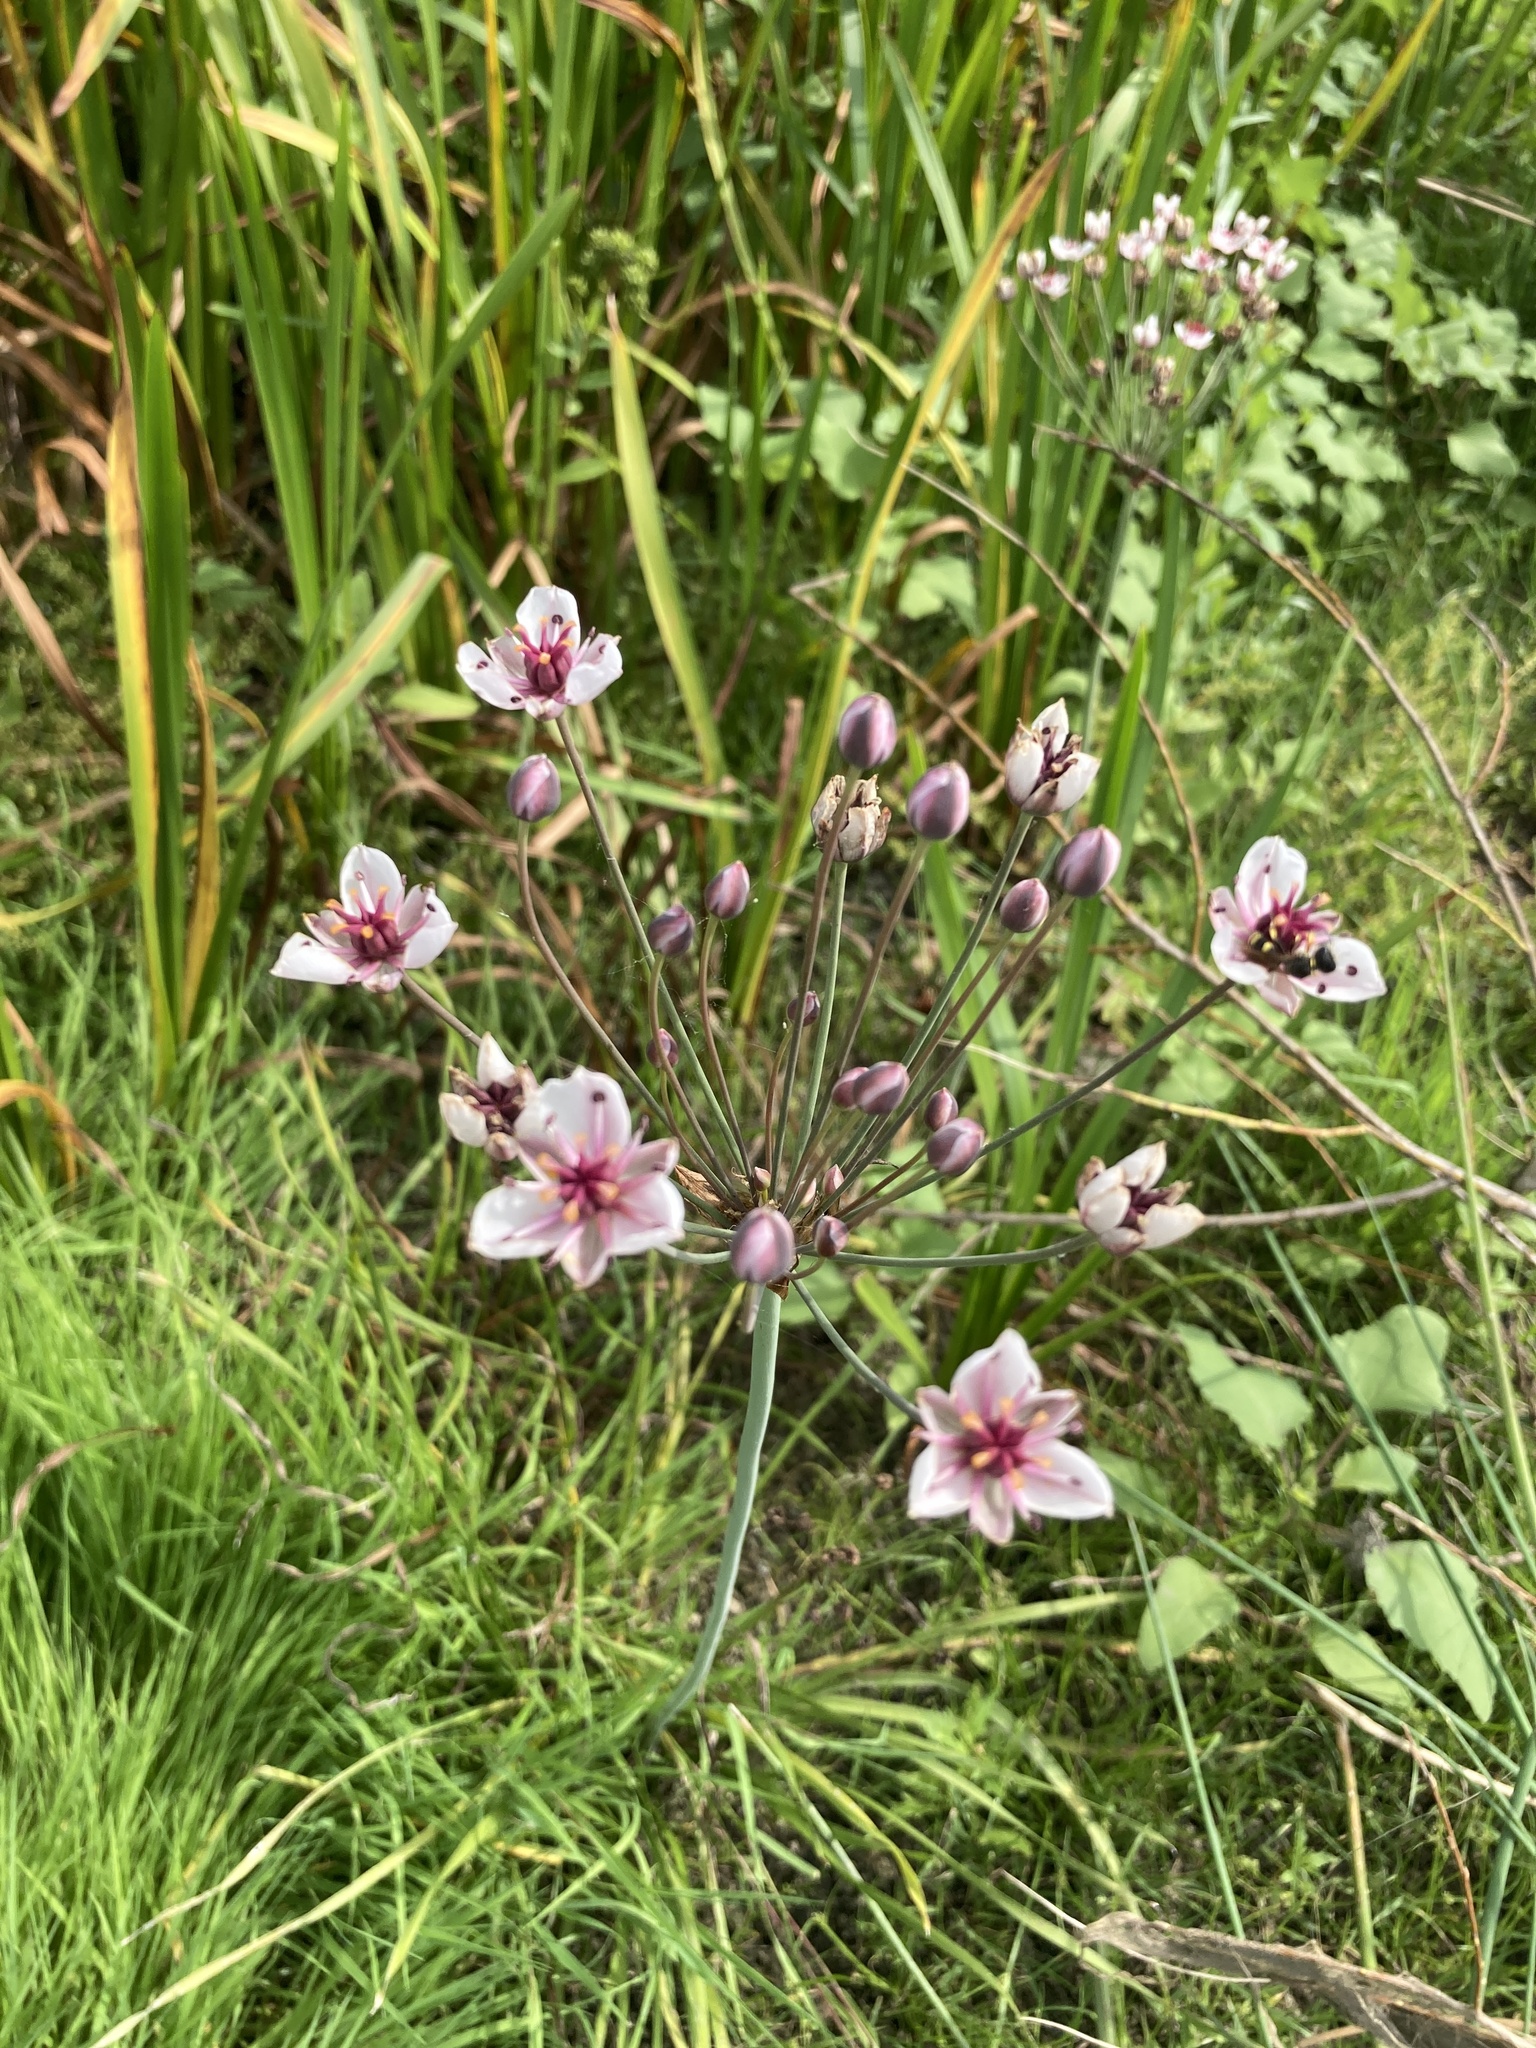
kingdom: Plantae
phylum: Tracheophyta
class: Liliopsida
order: Alismatales
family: Butomaceae
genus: Butomus
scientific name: Butomus umbellatus
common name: Flowering-rush
